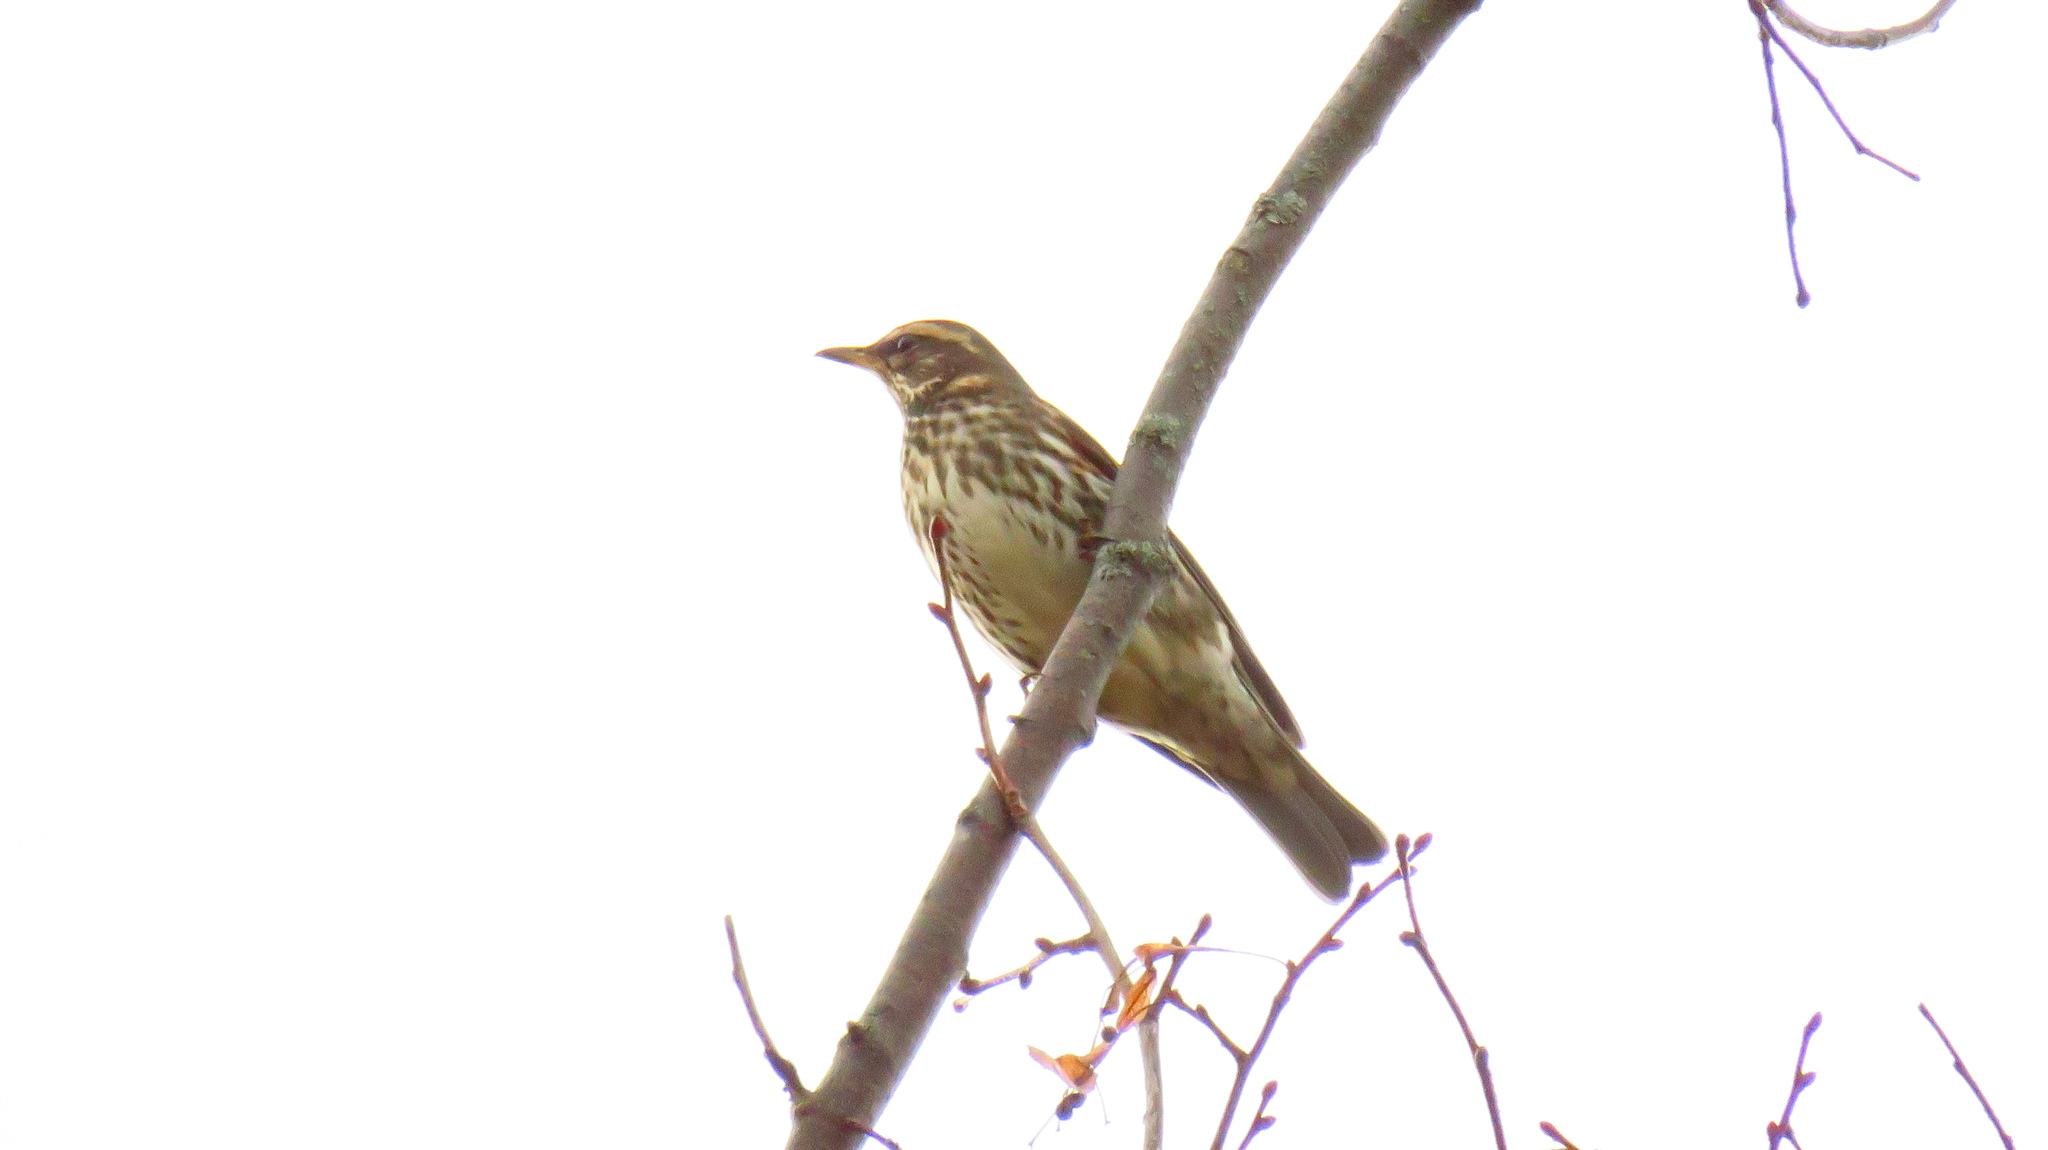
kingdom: Animalia
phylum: Chordata
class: Aves
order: Passeriformes
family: Turdidae
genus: Turdus
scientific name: Turdus iliacus
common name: Redwing
